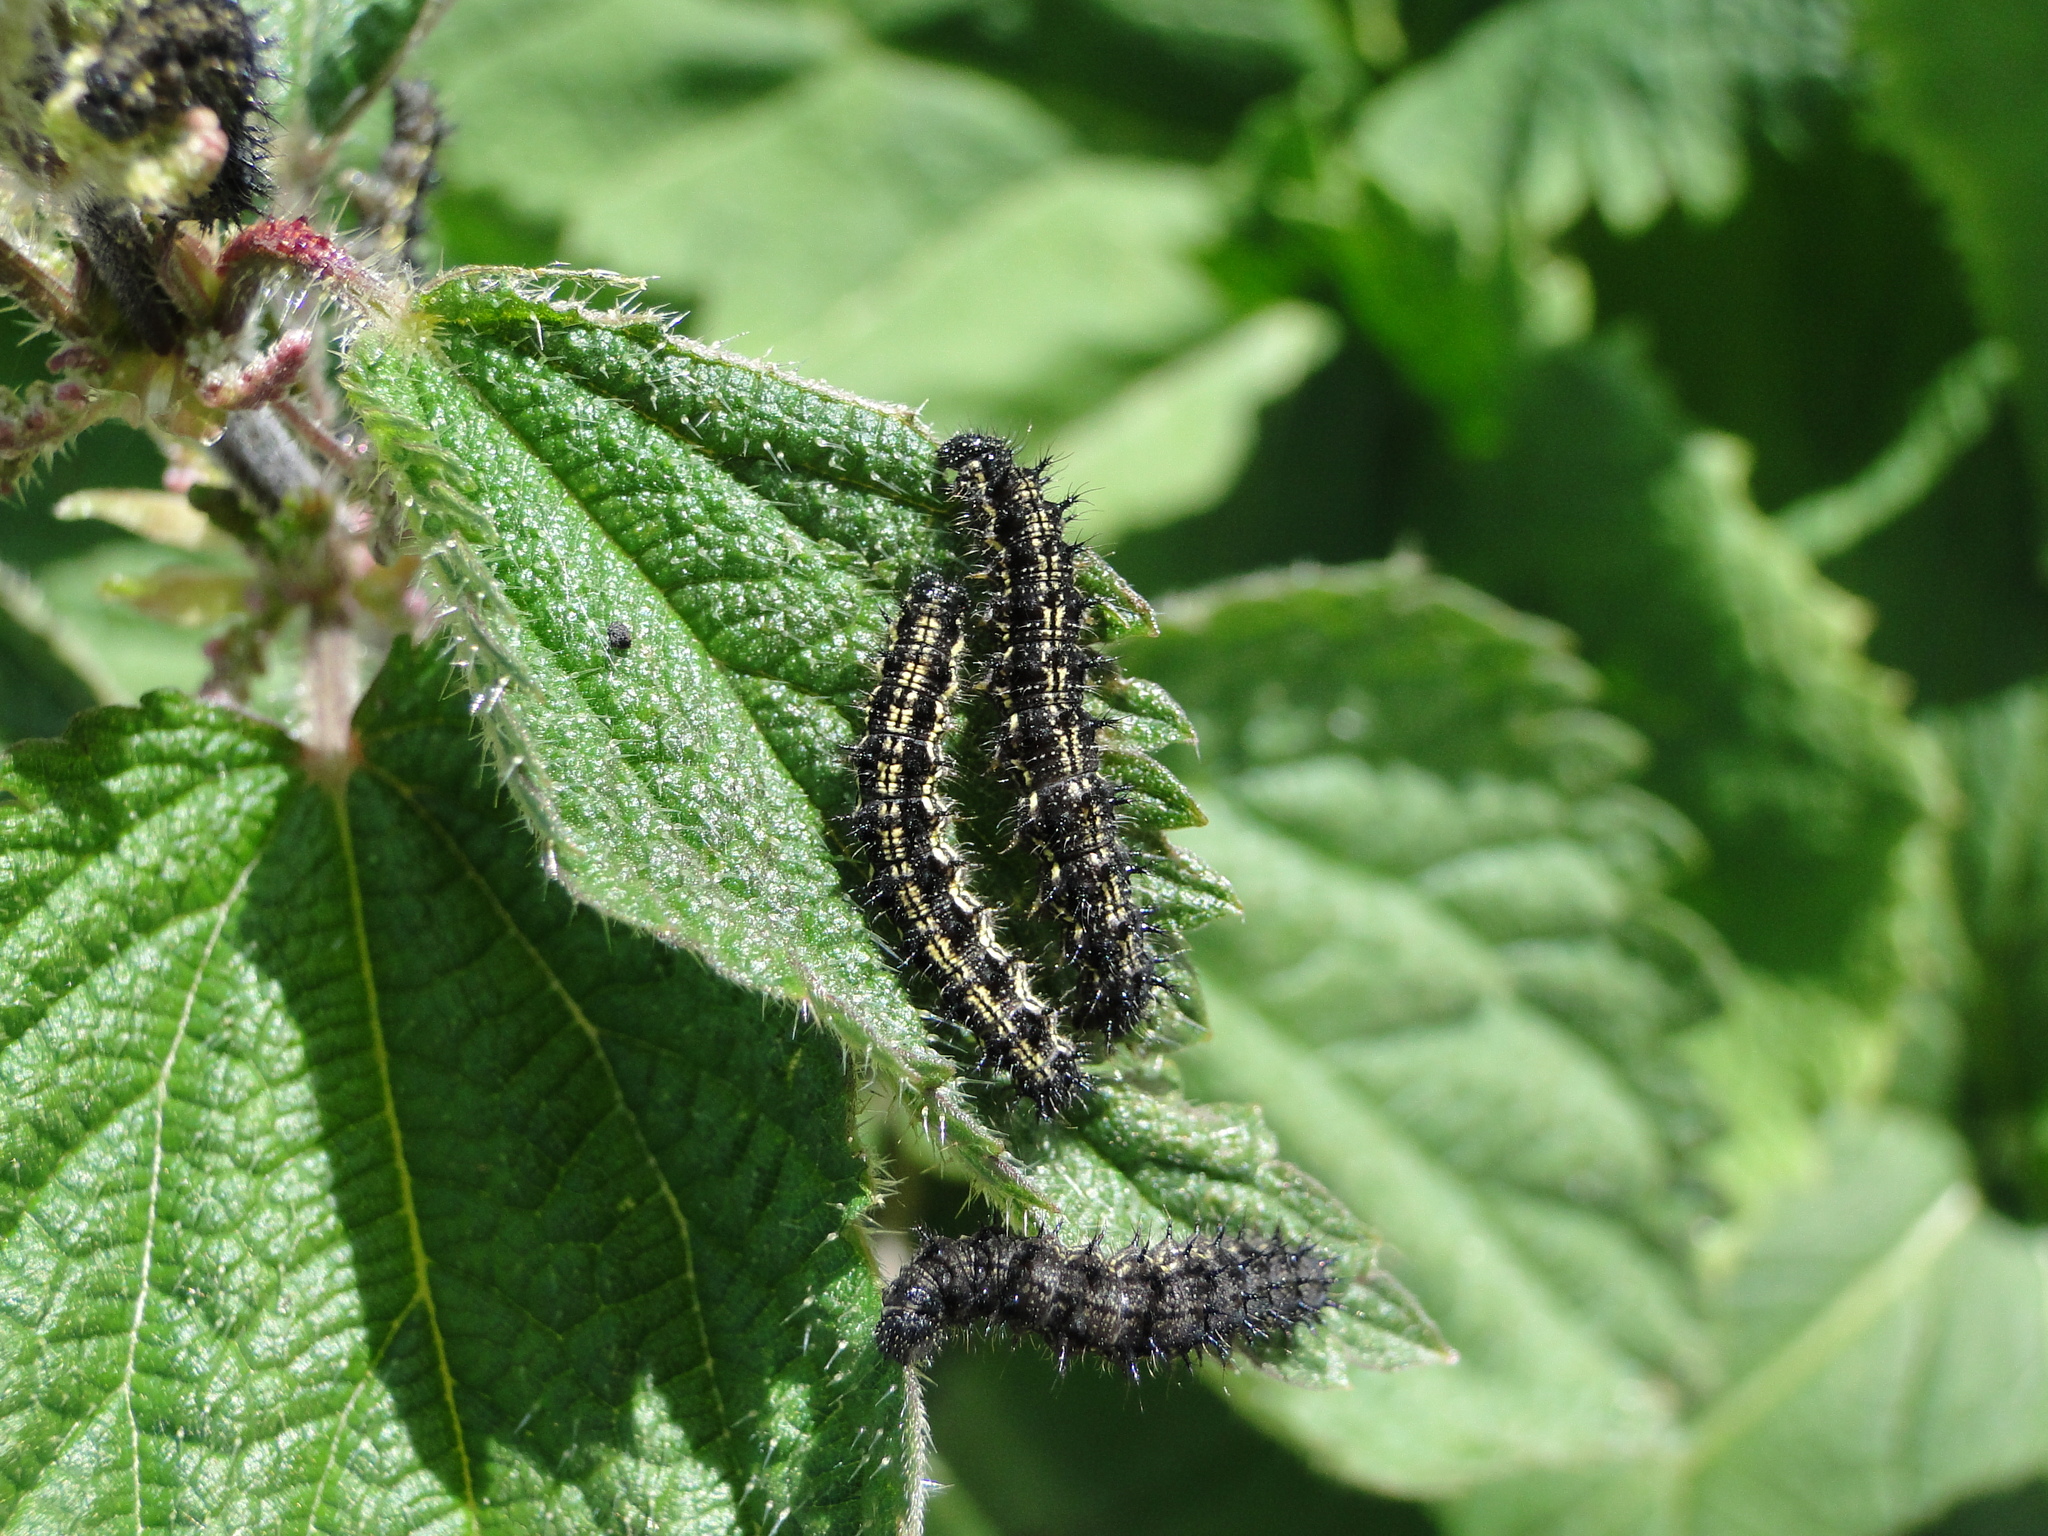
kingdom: Animalia
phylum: Arthropoda
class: Insecta
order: Lepidoptera
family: Nymphalidae
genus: Aglais
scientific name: Aglais urticae
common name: Small tortoiseshell
